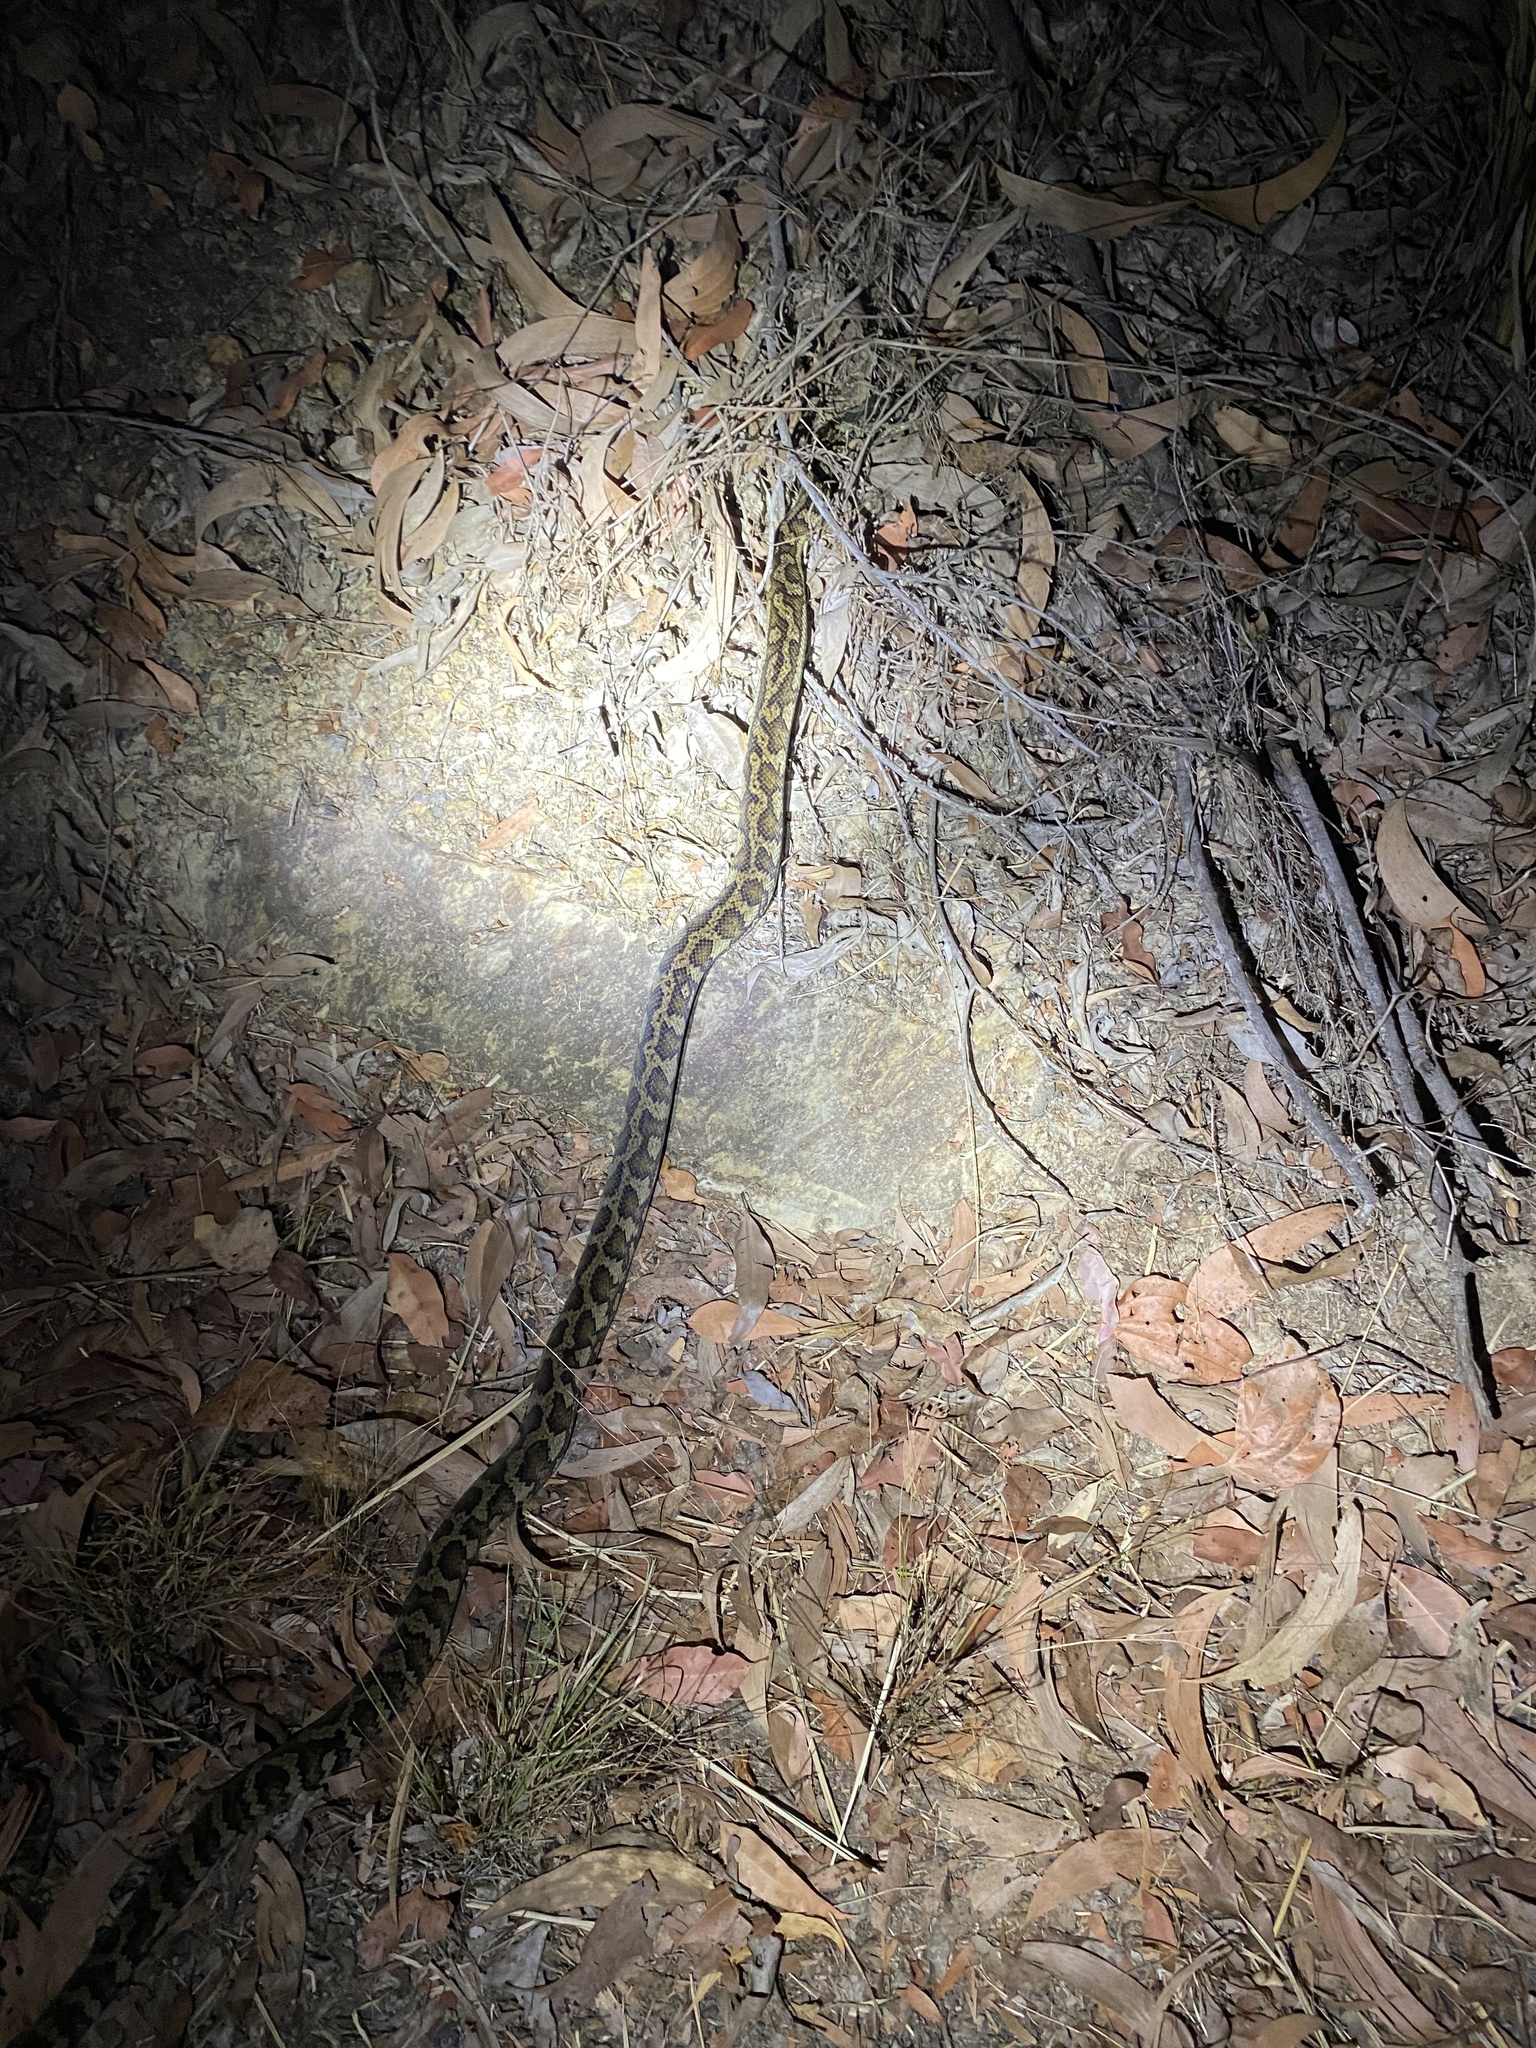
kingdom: Animalia
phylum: Chordata
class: Squamata
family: Pythonidae
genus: Morelia
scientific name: Morelia spilota
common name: Carpet python
